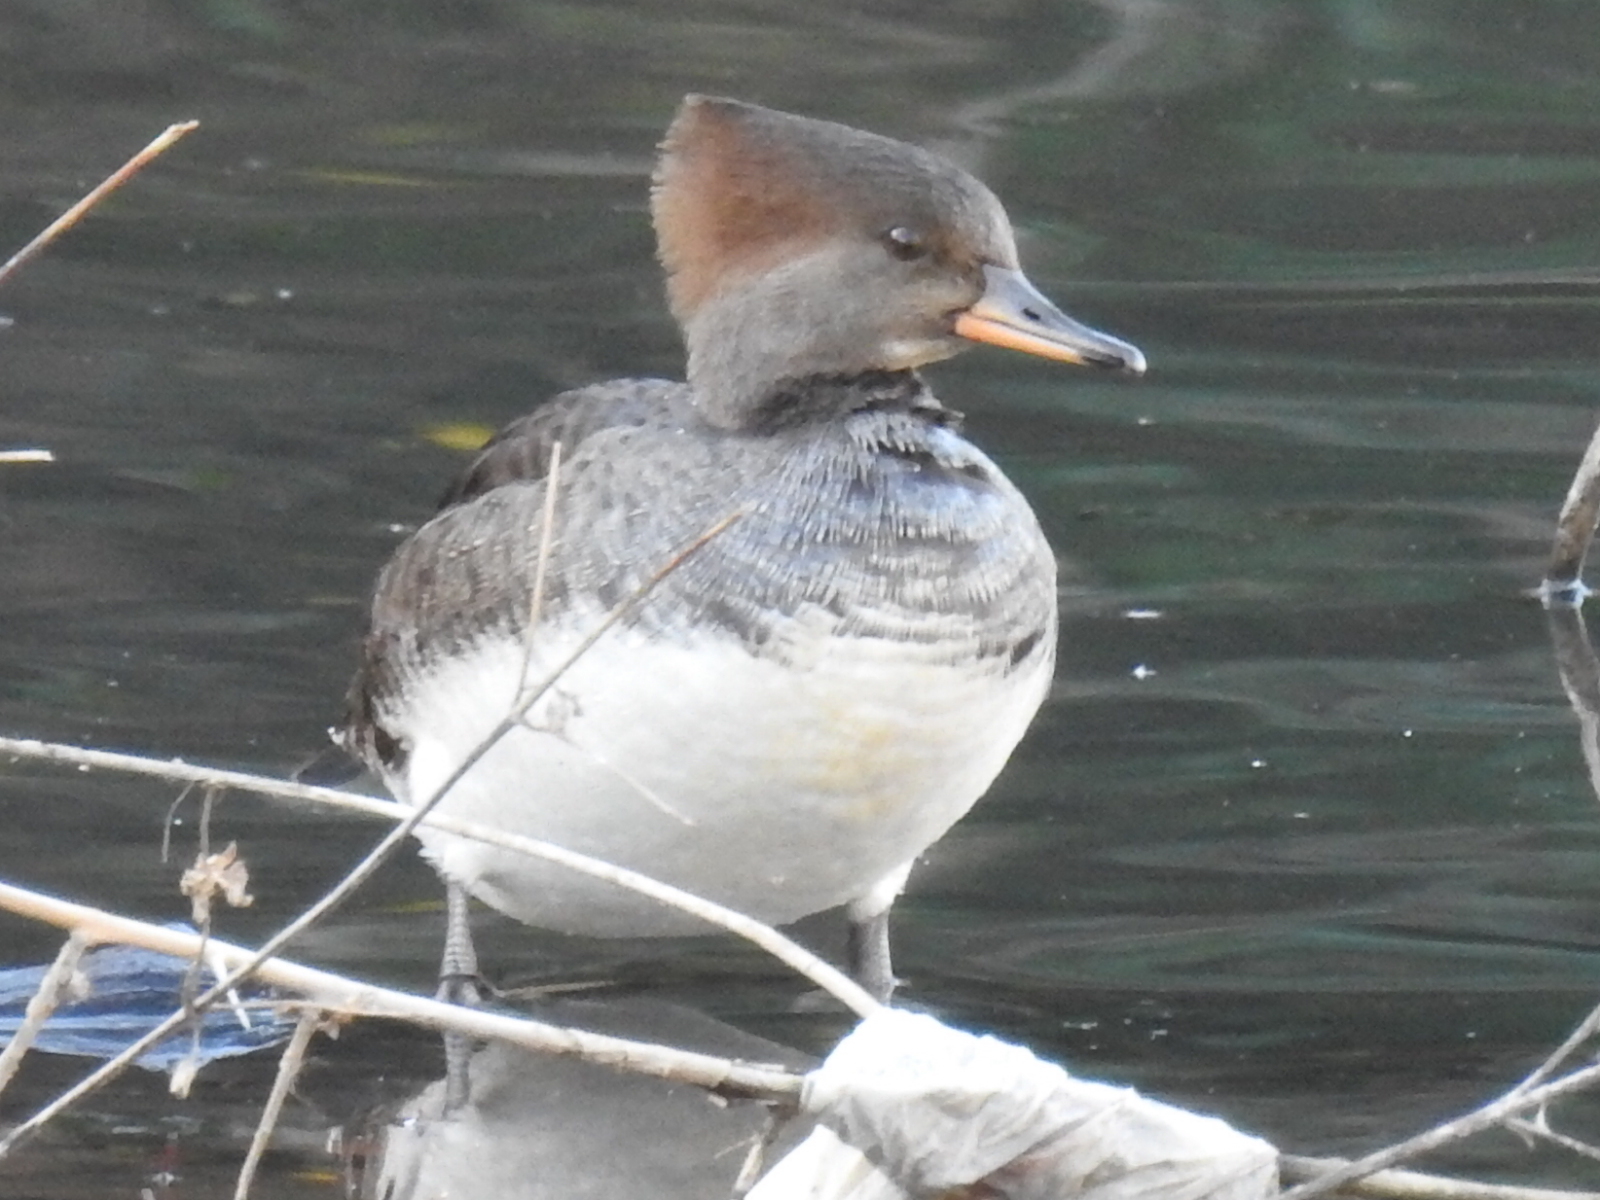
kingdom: Animalia
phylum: Chordata
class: Aves
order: Anseriformes
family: Anatidae
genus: Lophodytes
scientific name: Lophodytes cucullatus
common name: Hooded merganser
